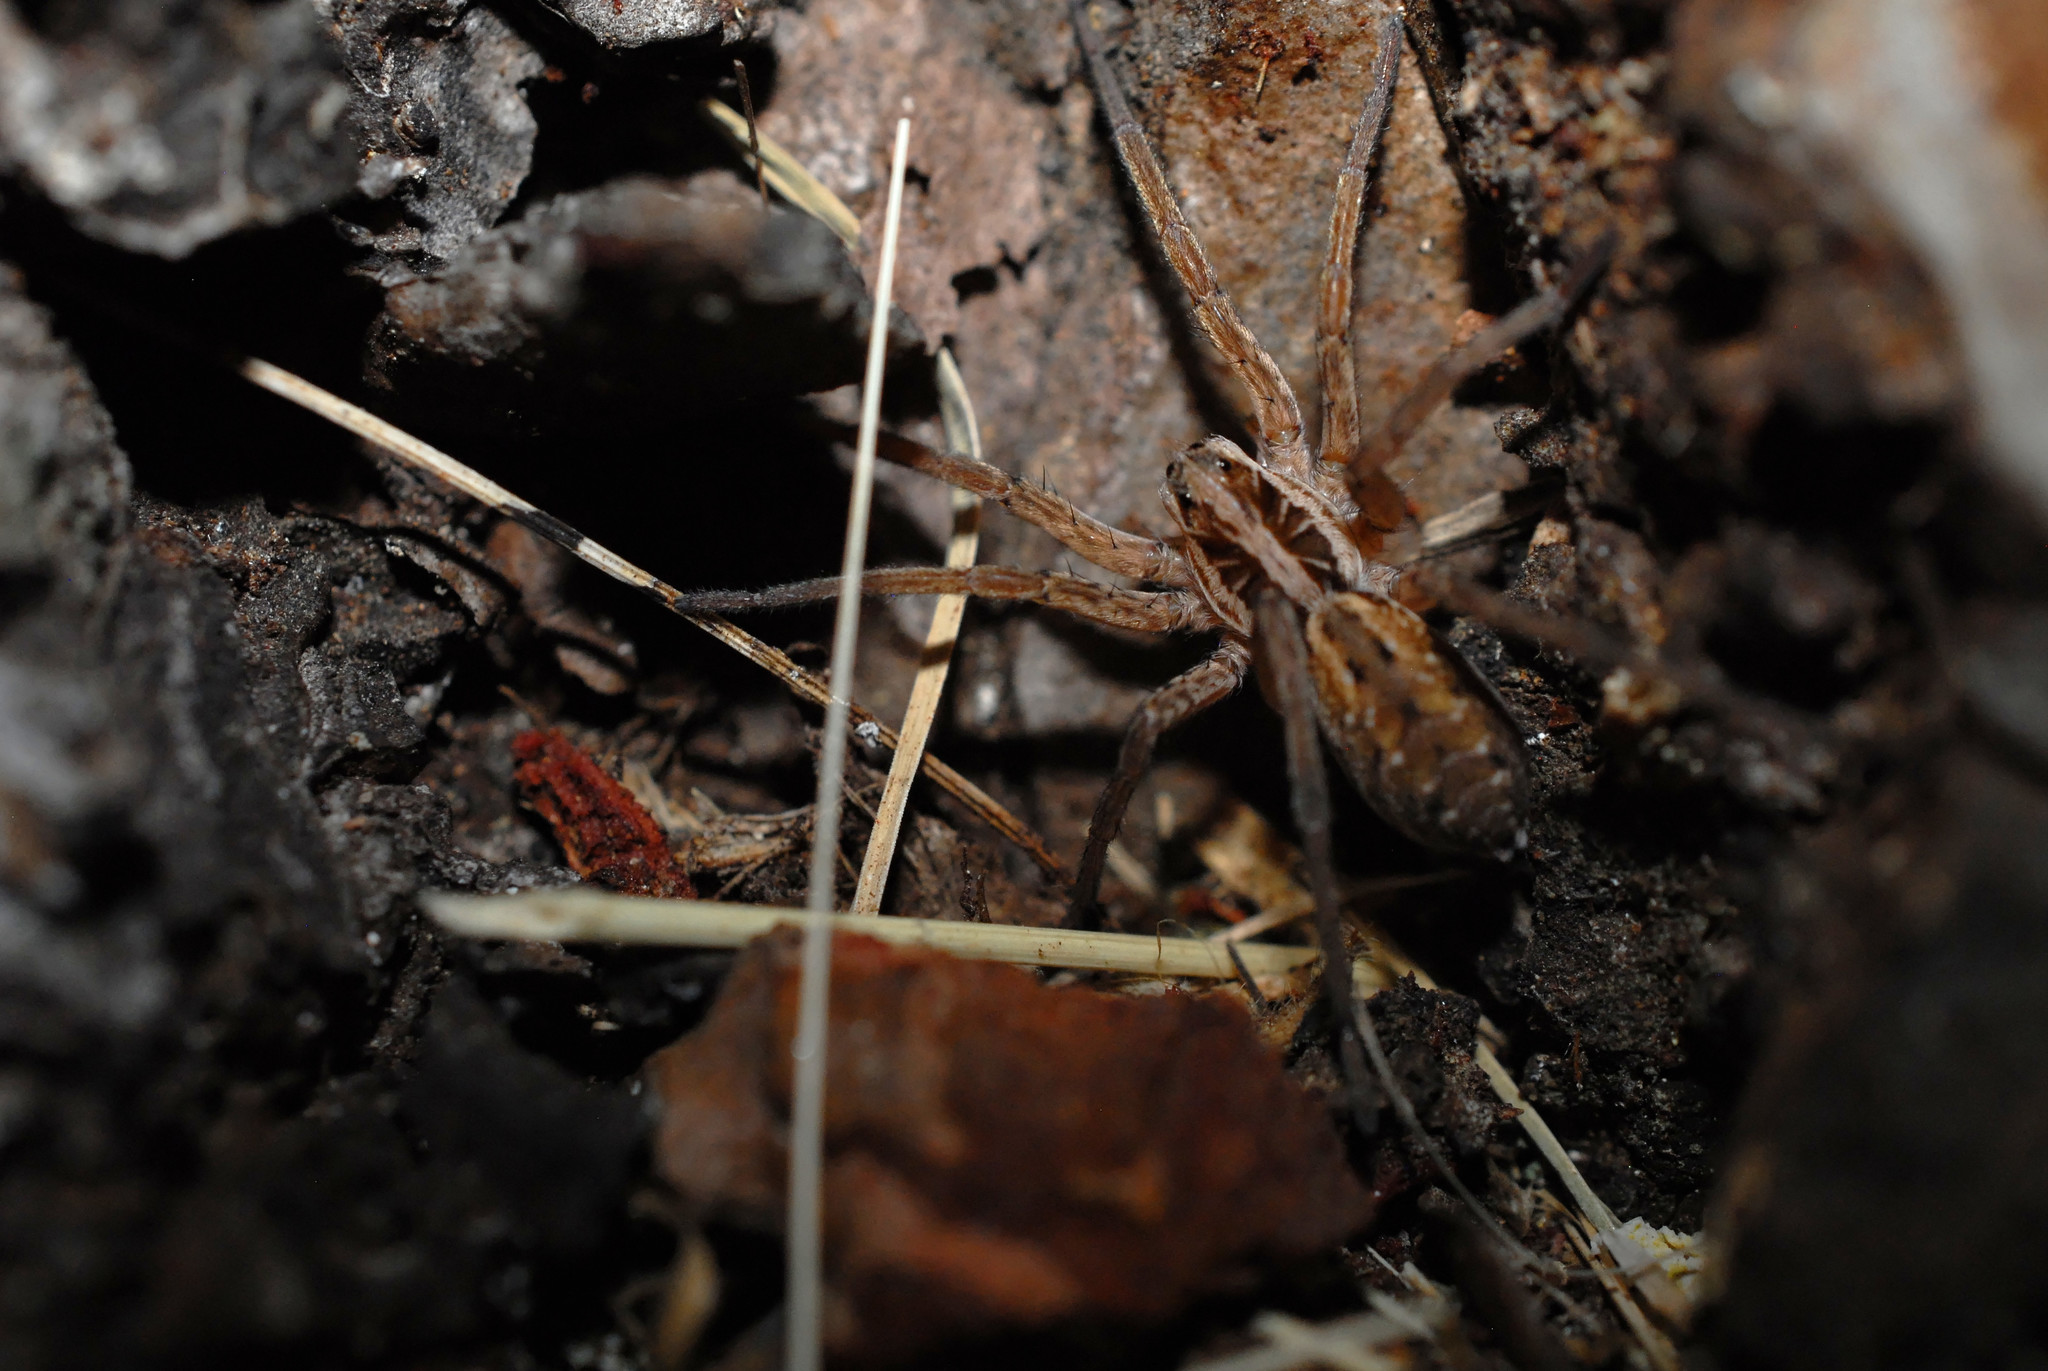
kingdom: Animalia
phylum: Arthropoda
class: Arachnida
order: Araneae
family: Lycosidae
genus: Hogna
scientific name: Hogna radiata
